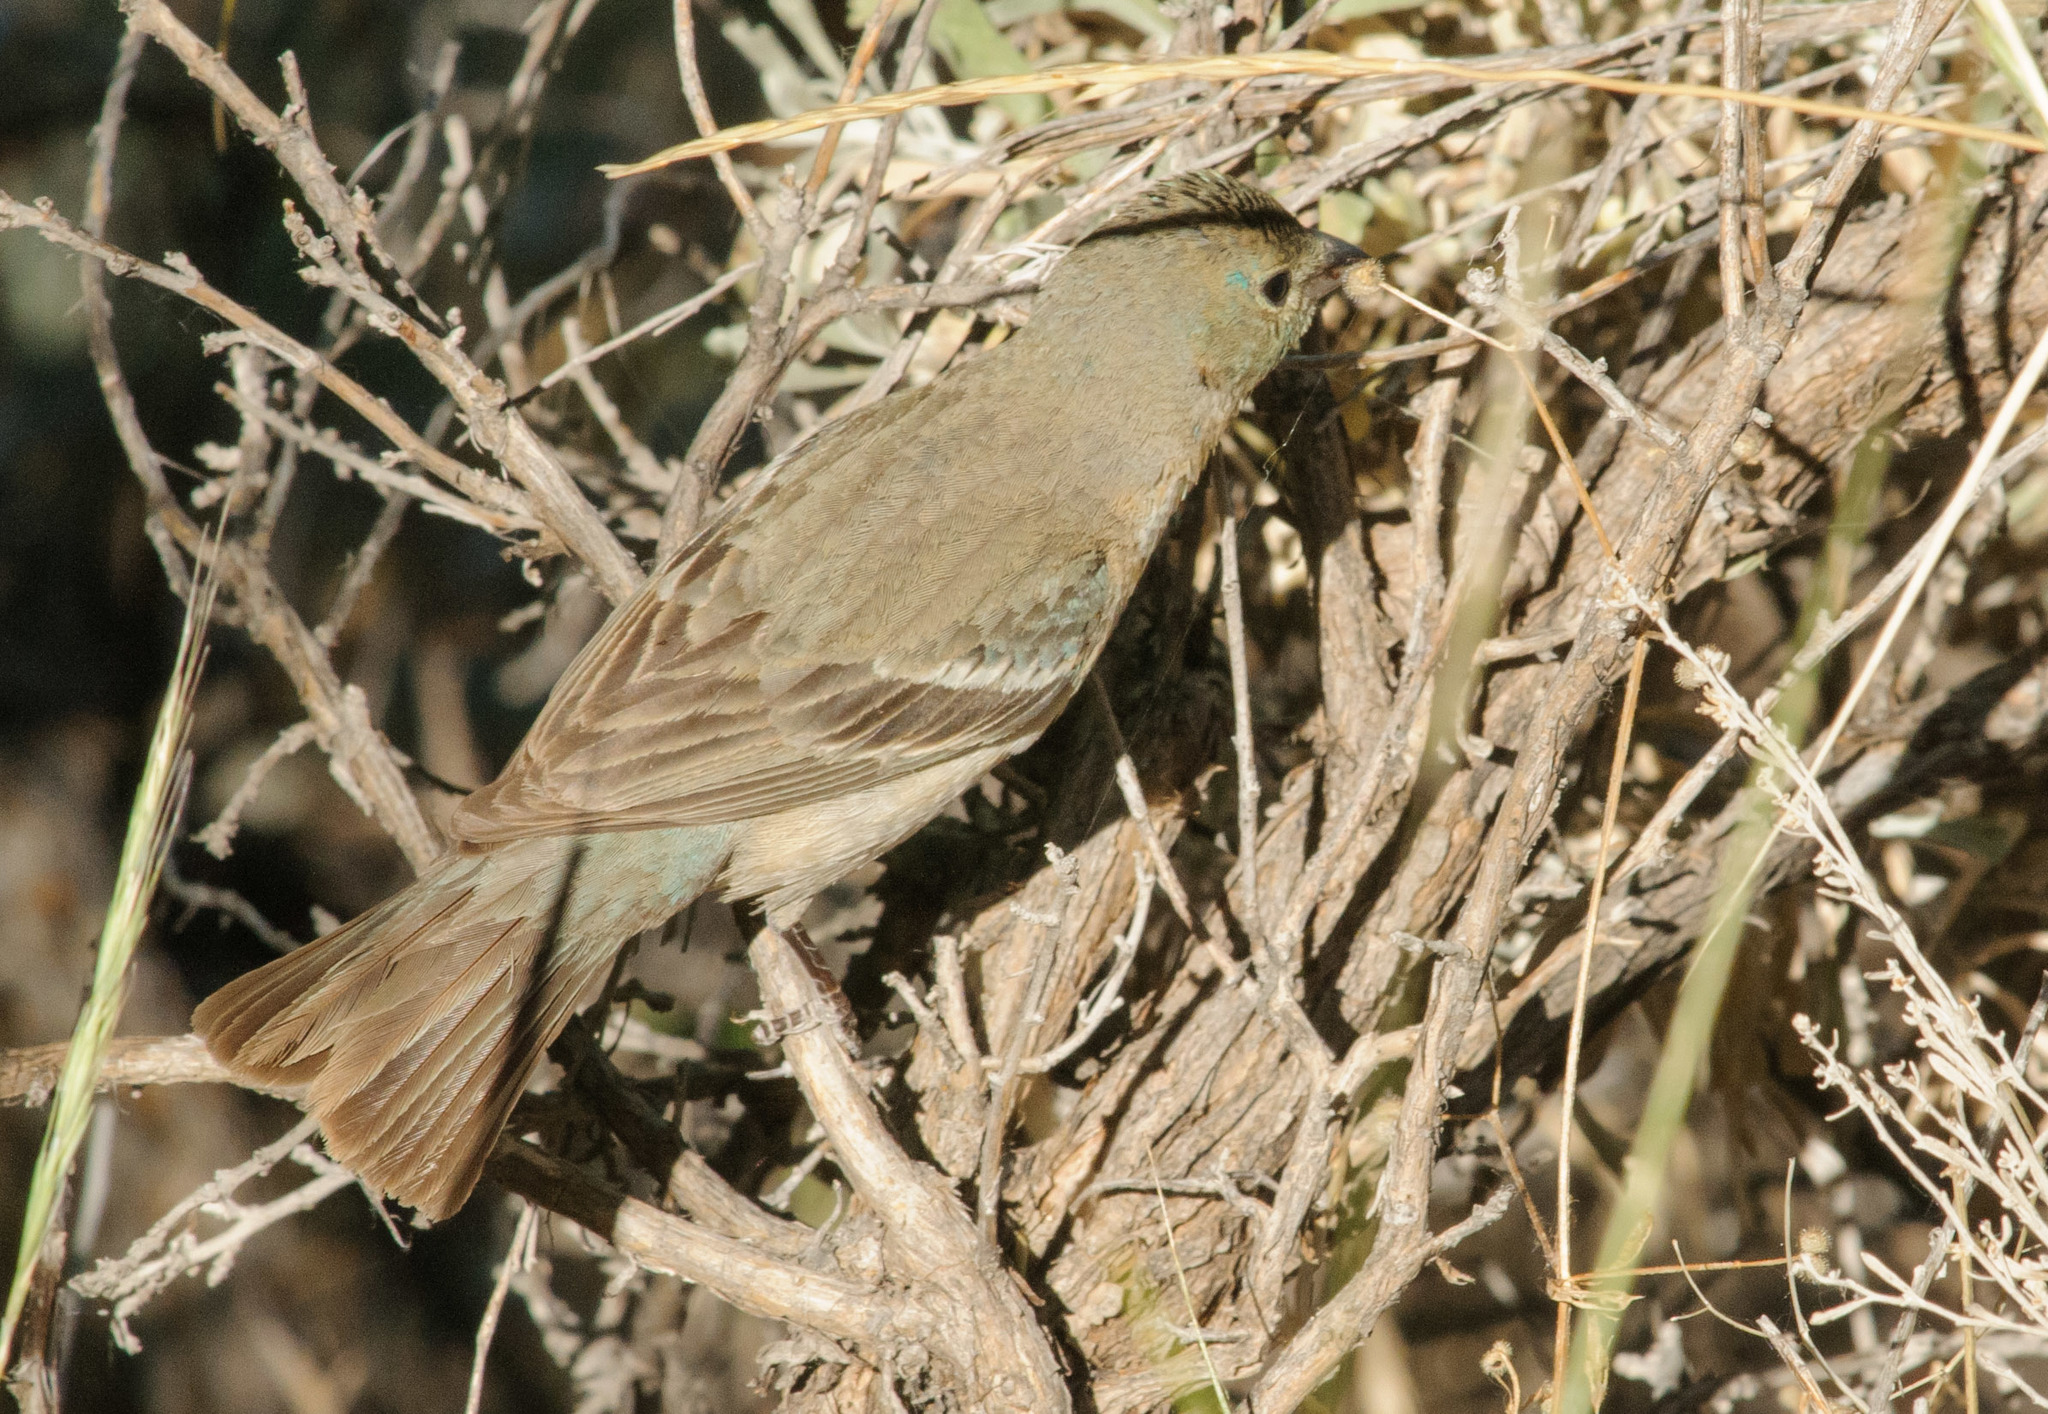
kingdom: Animalia
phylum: Chordata
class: Aves
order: Passeriformes
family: Cardinalidae
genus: Passerina
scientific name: Passerina amoena
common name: Lazuli bunting
